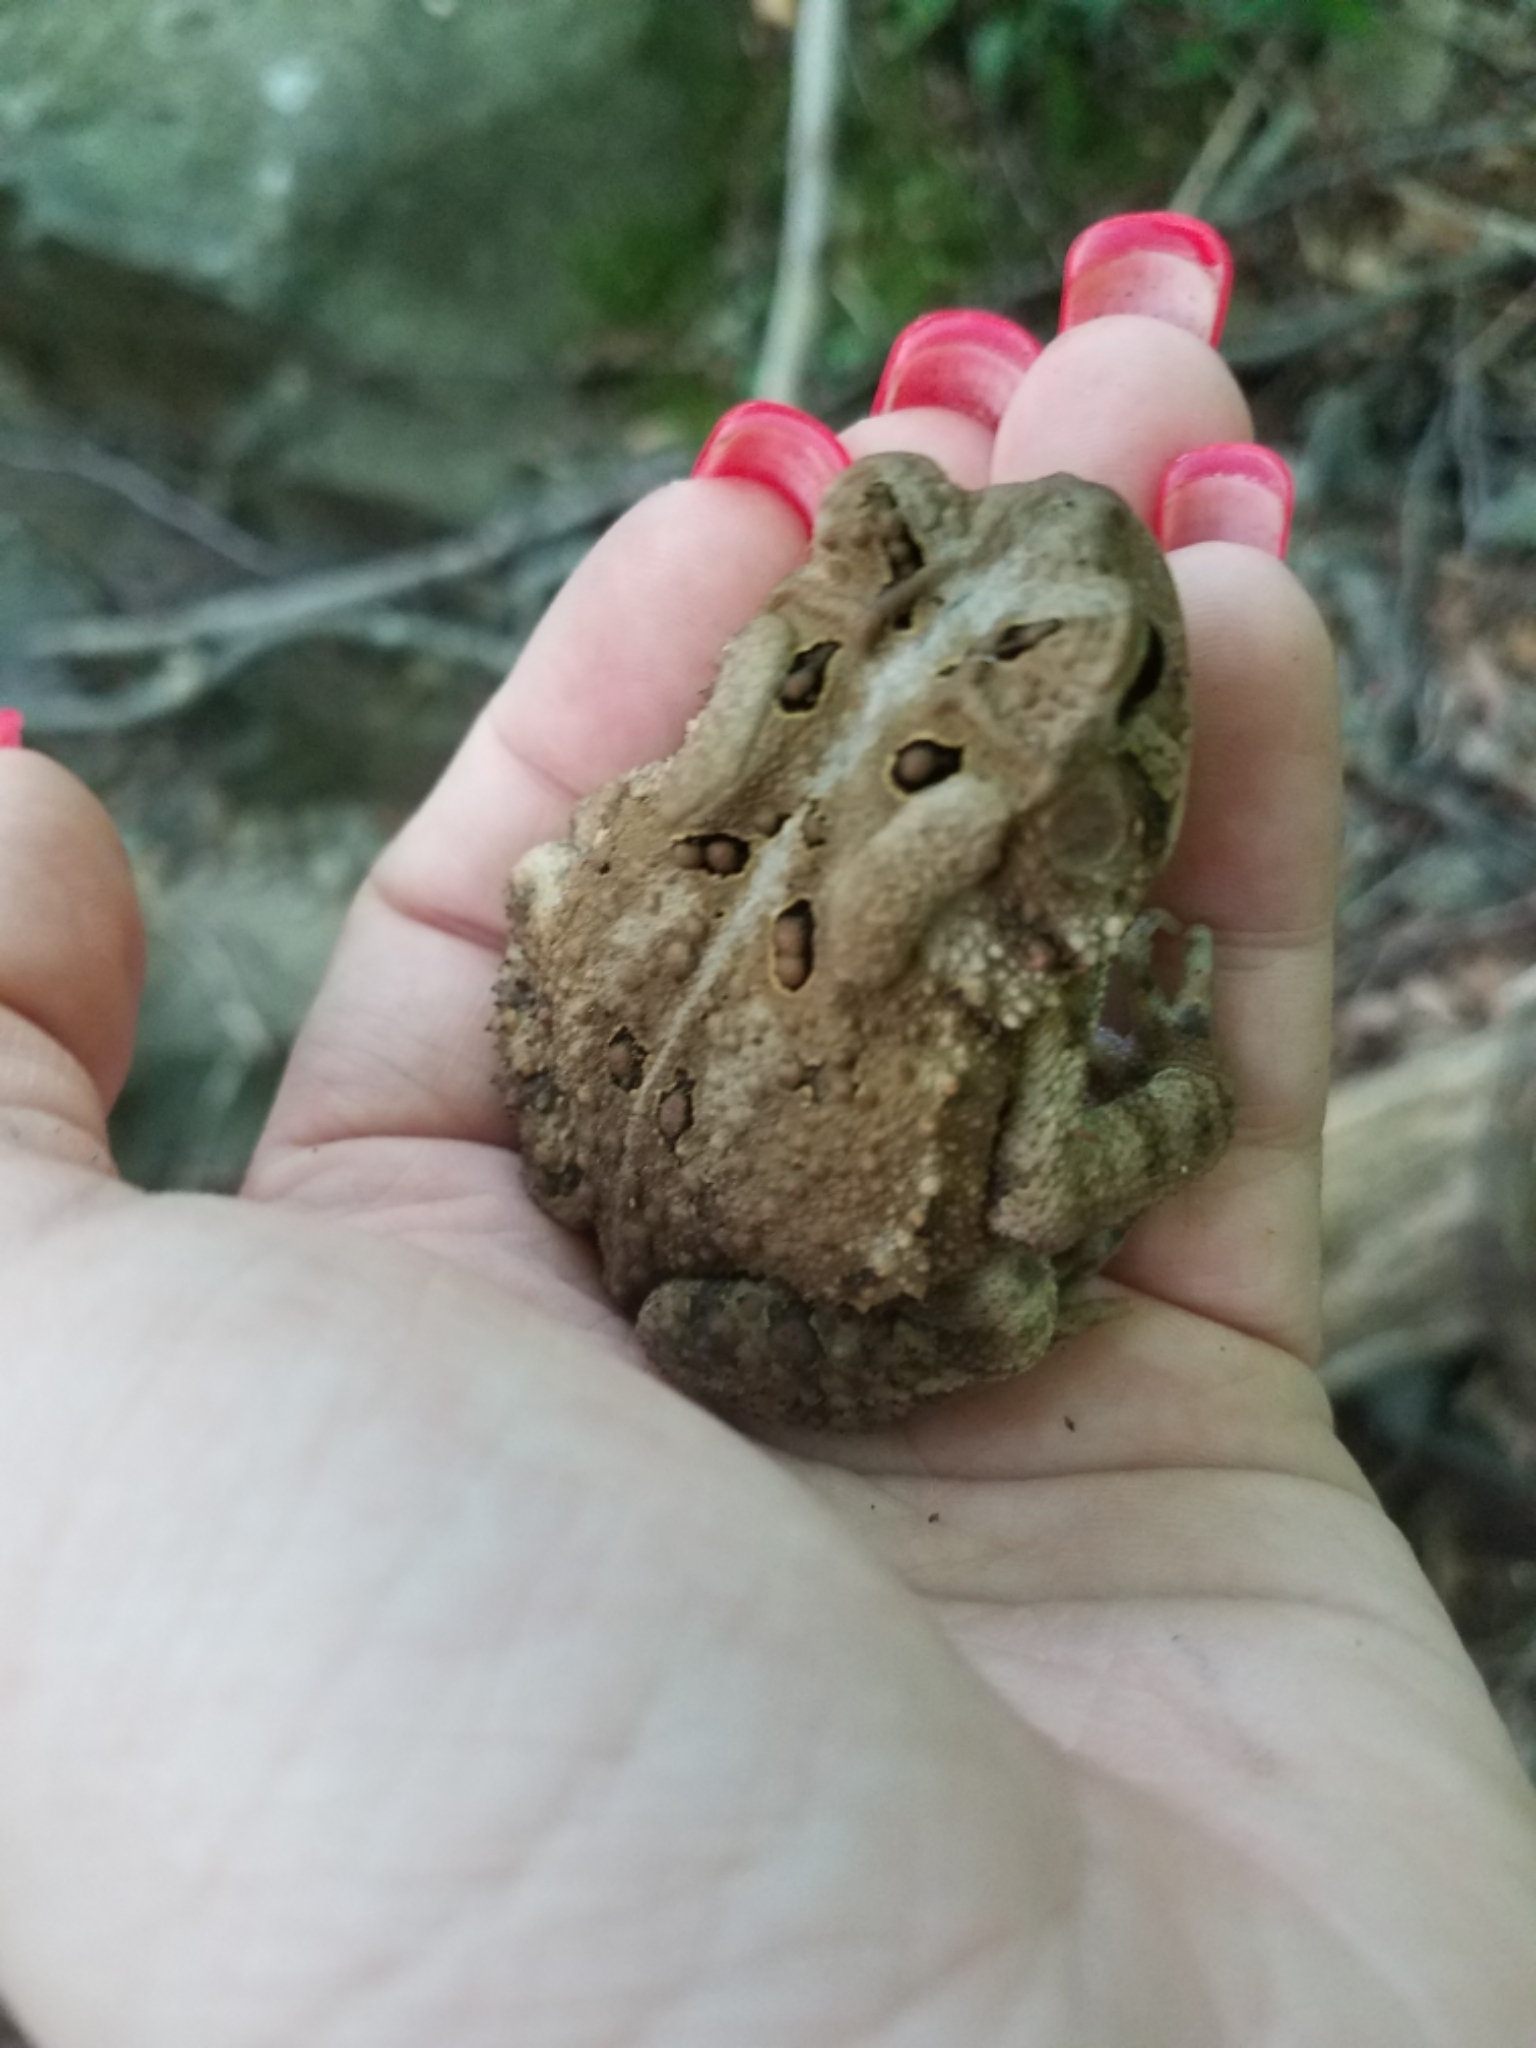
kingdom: Animalia
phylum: Chordata
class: Amphibia
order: Anura
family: Bufonidae
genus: Anaxyrus
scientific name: Anaxyrus americanus
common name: American toad
